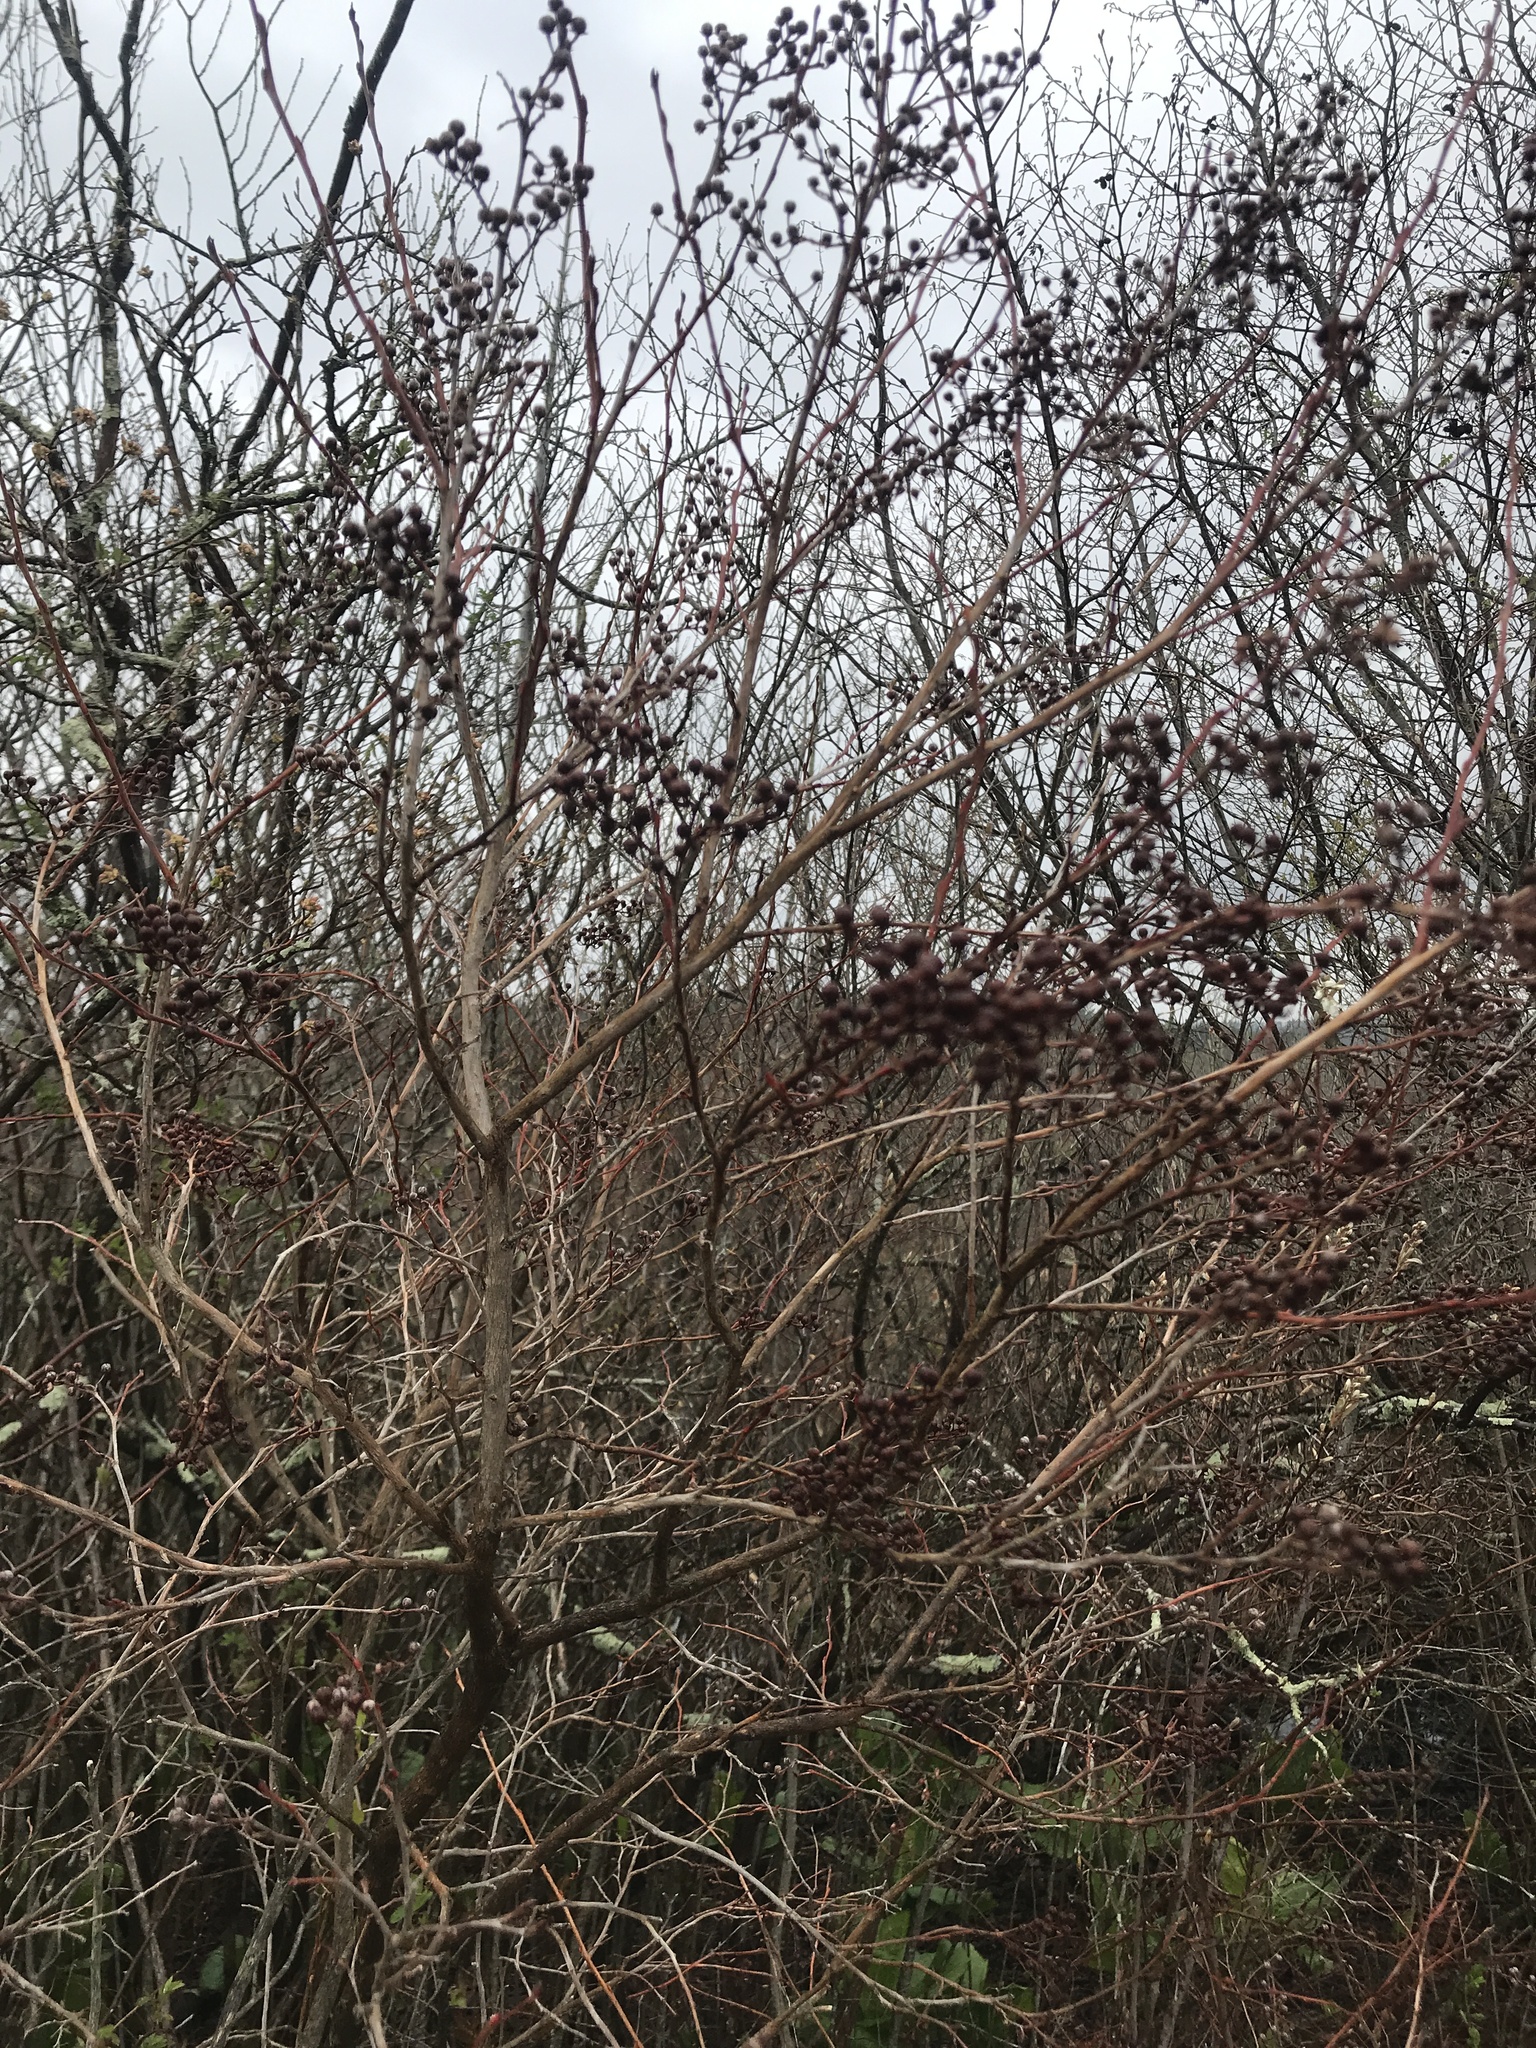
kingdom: Plantae
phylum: Tracheophyta
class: Magnoliopsida
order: Ericales
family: Ericaceae
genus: Lyonia
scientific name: Lyonia ligustrina
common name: Maleberry
